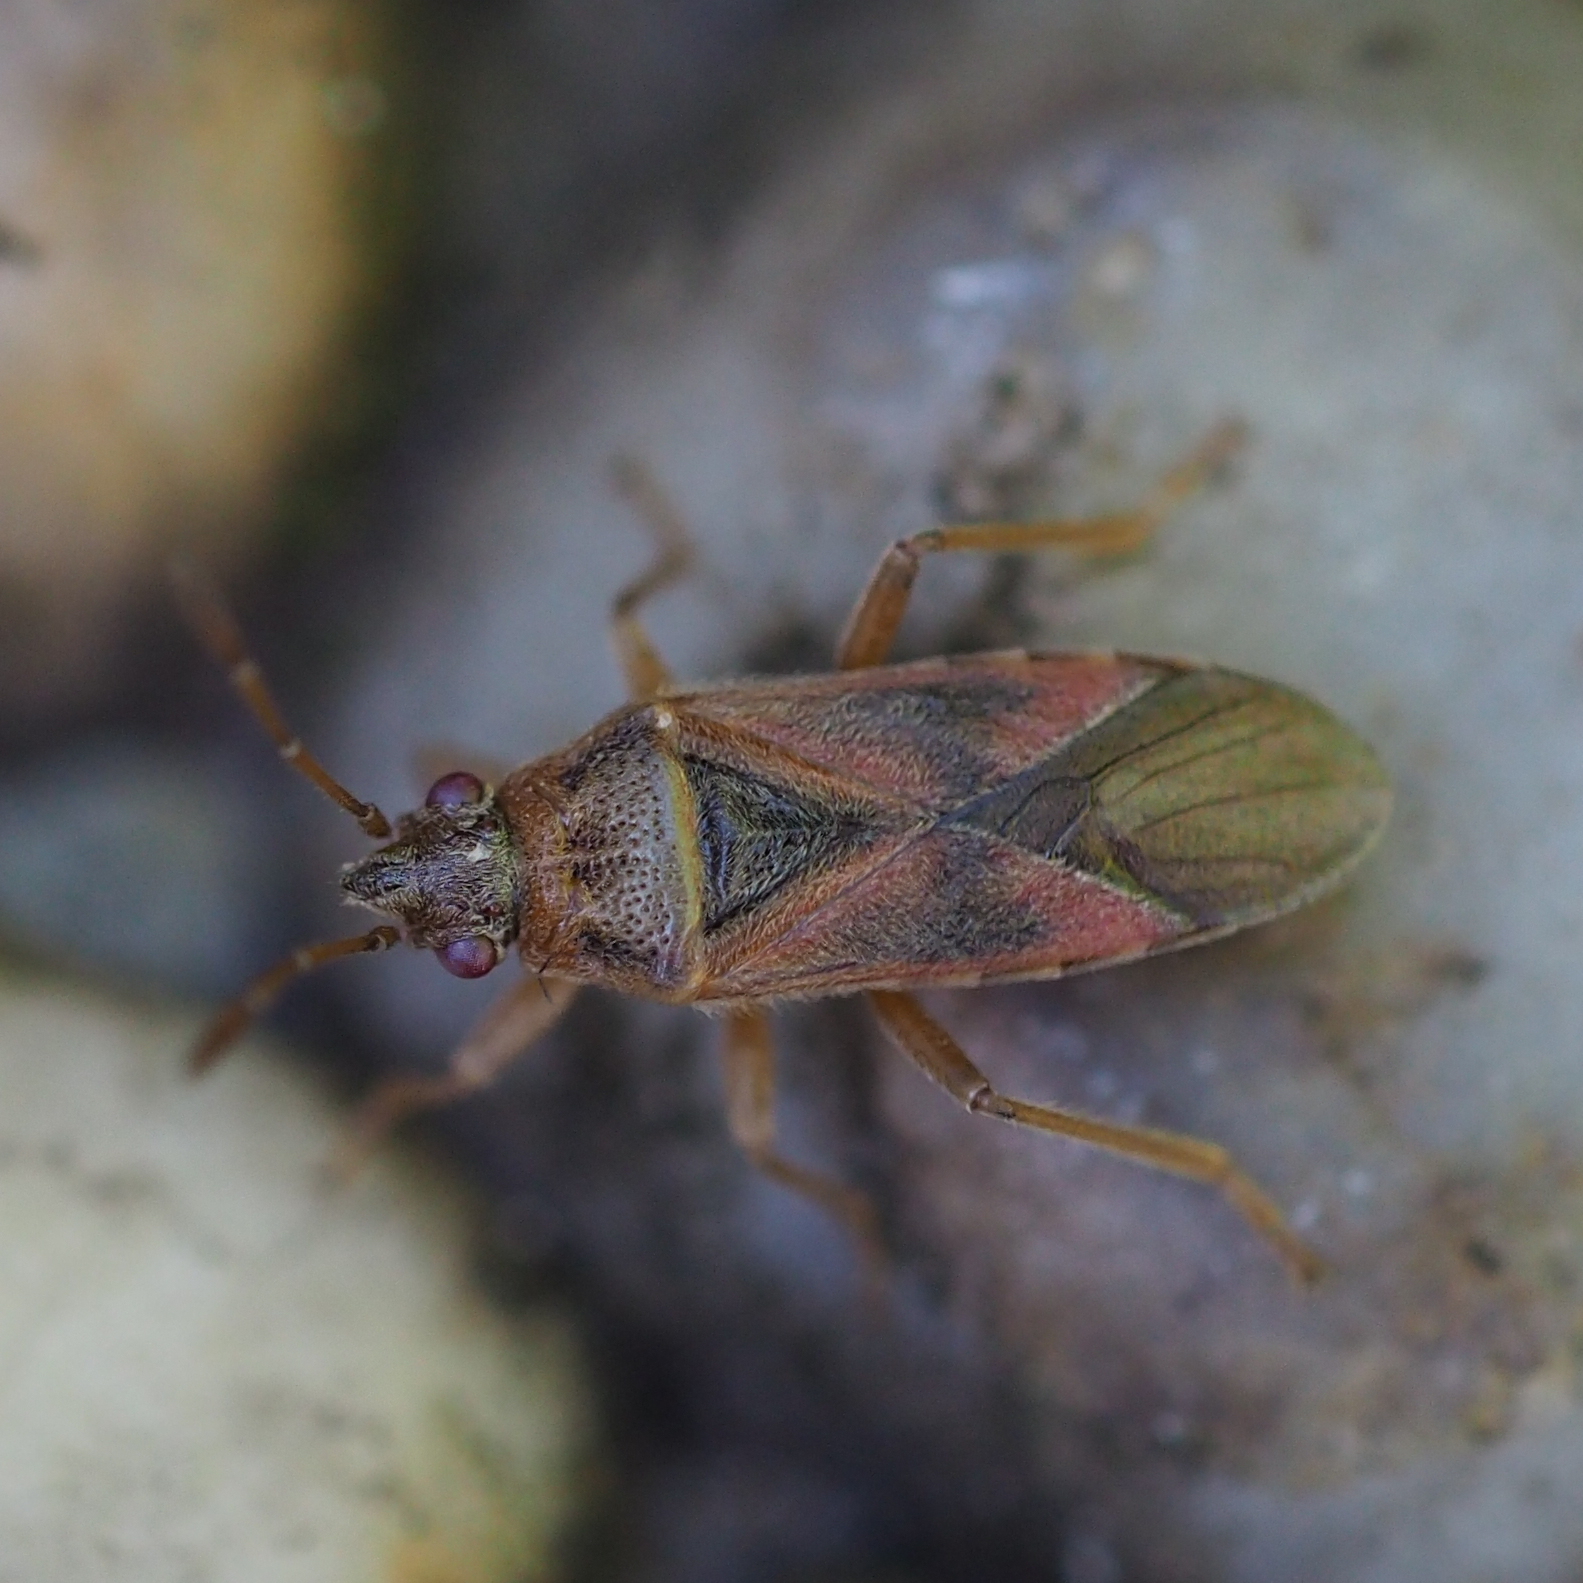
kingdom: Animalia
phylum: Arthropoda
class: Insecta
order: Hemiptera
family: Lygaeidae
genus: Arocatus
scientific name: Arocatus longiceps
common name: Plane tree bug
